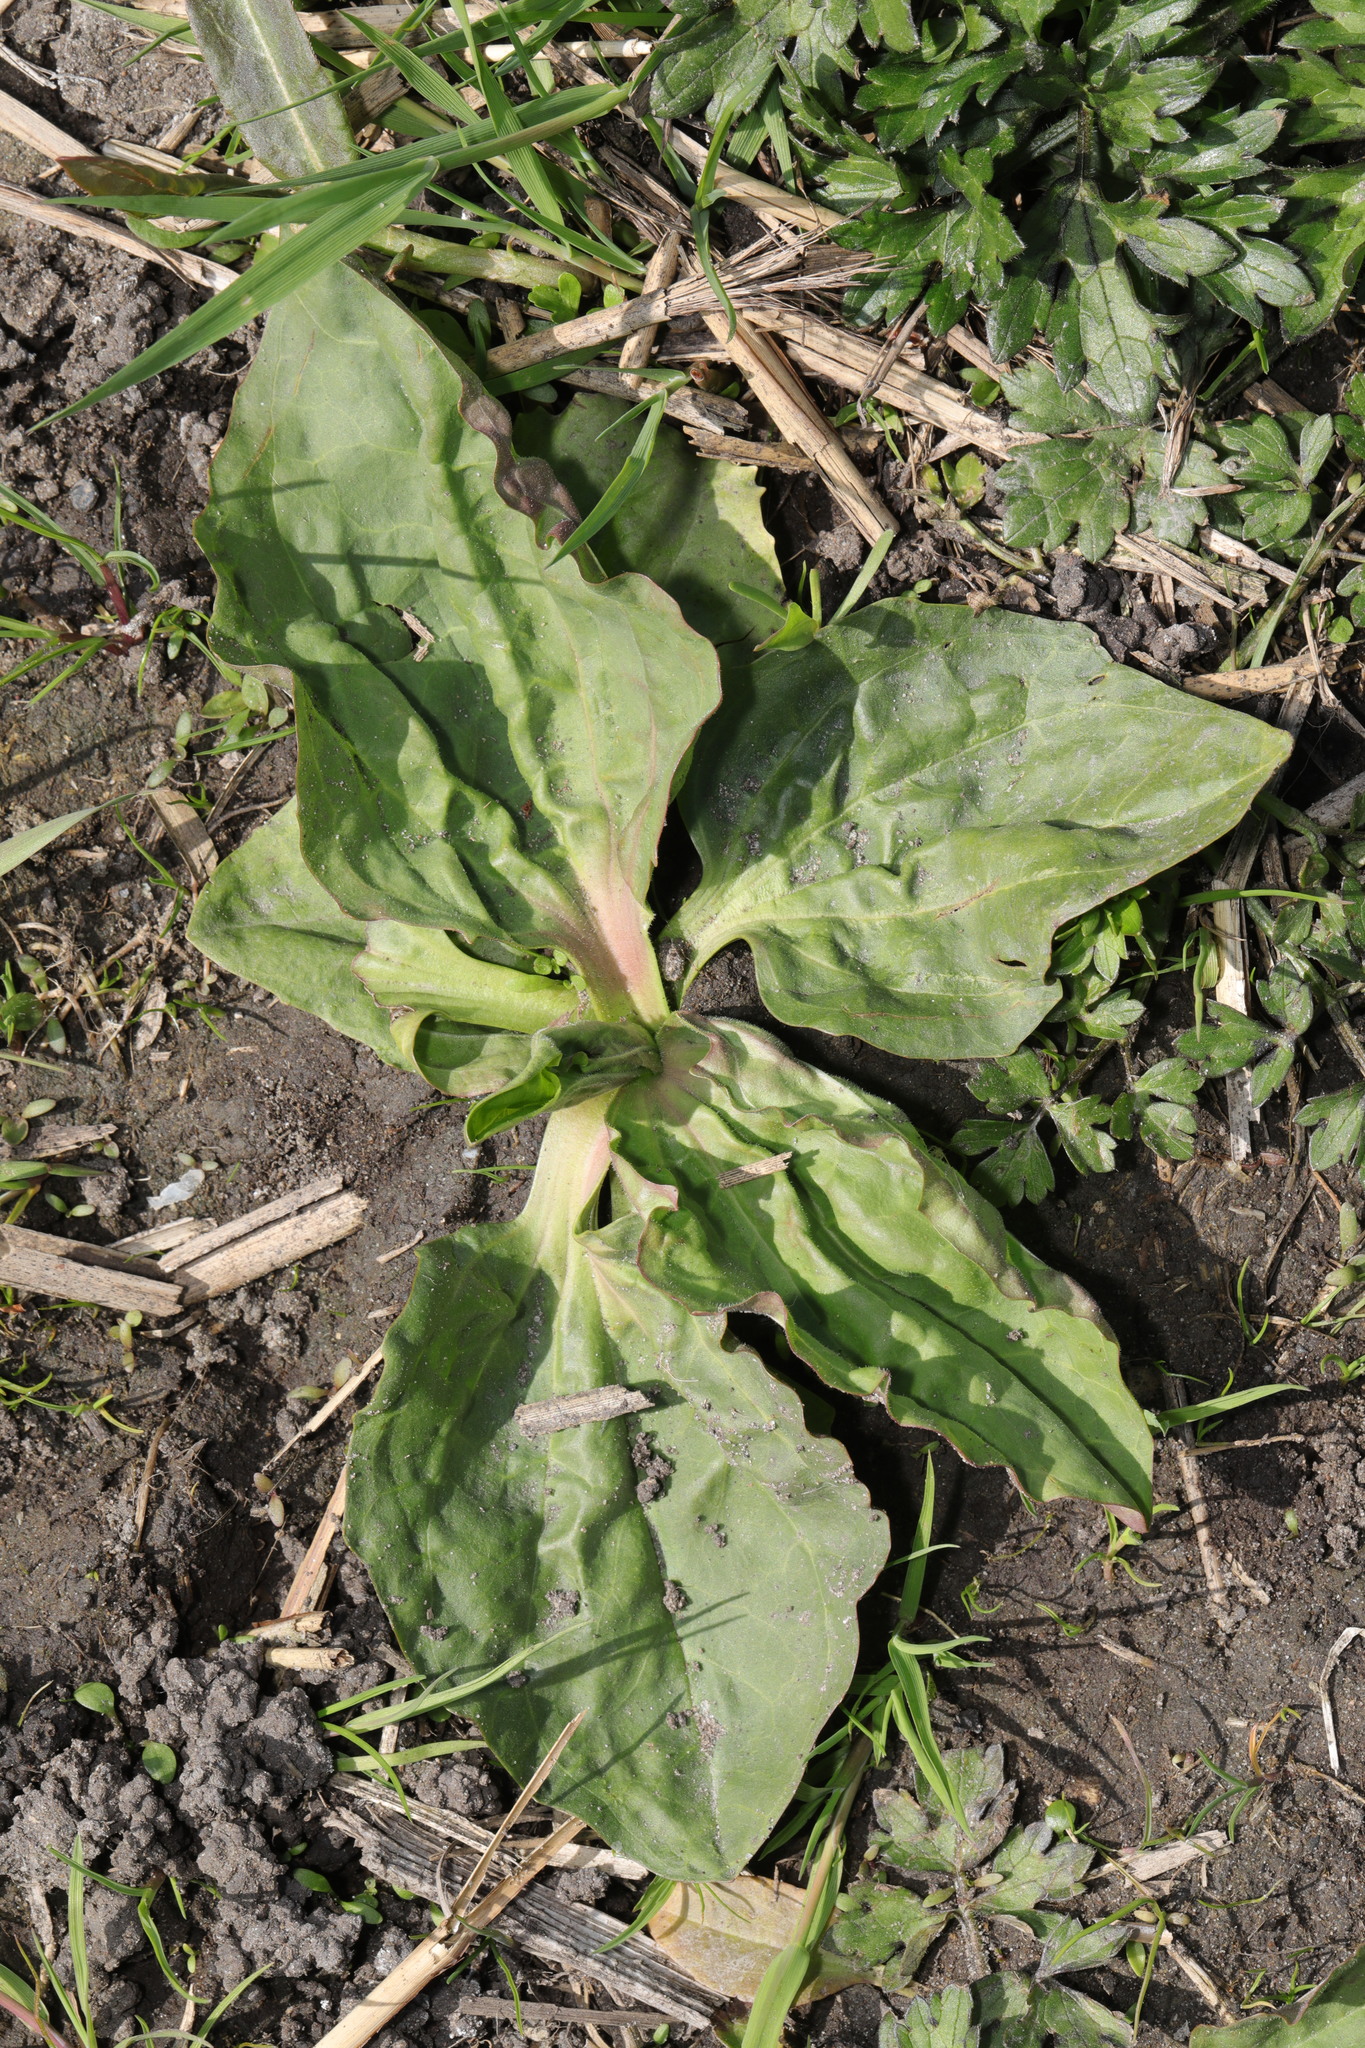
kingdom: Plantae
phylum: Tracheophyta
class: Magnoliopsida
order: Lamiales
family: Plantaginaceae
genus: Plantago
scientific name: Plantago major
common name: Common plantain
